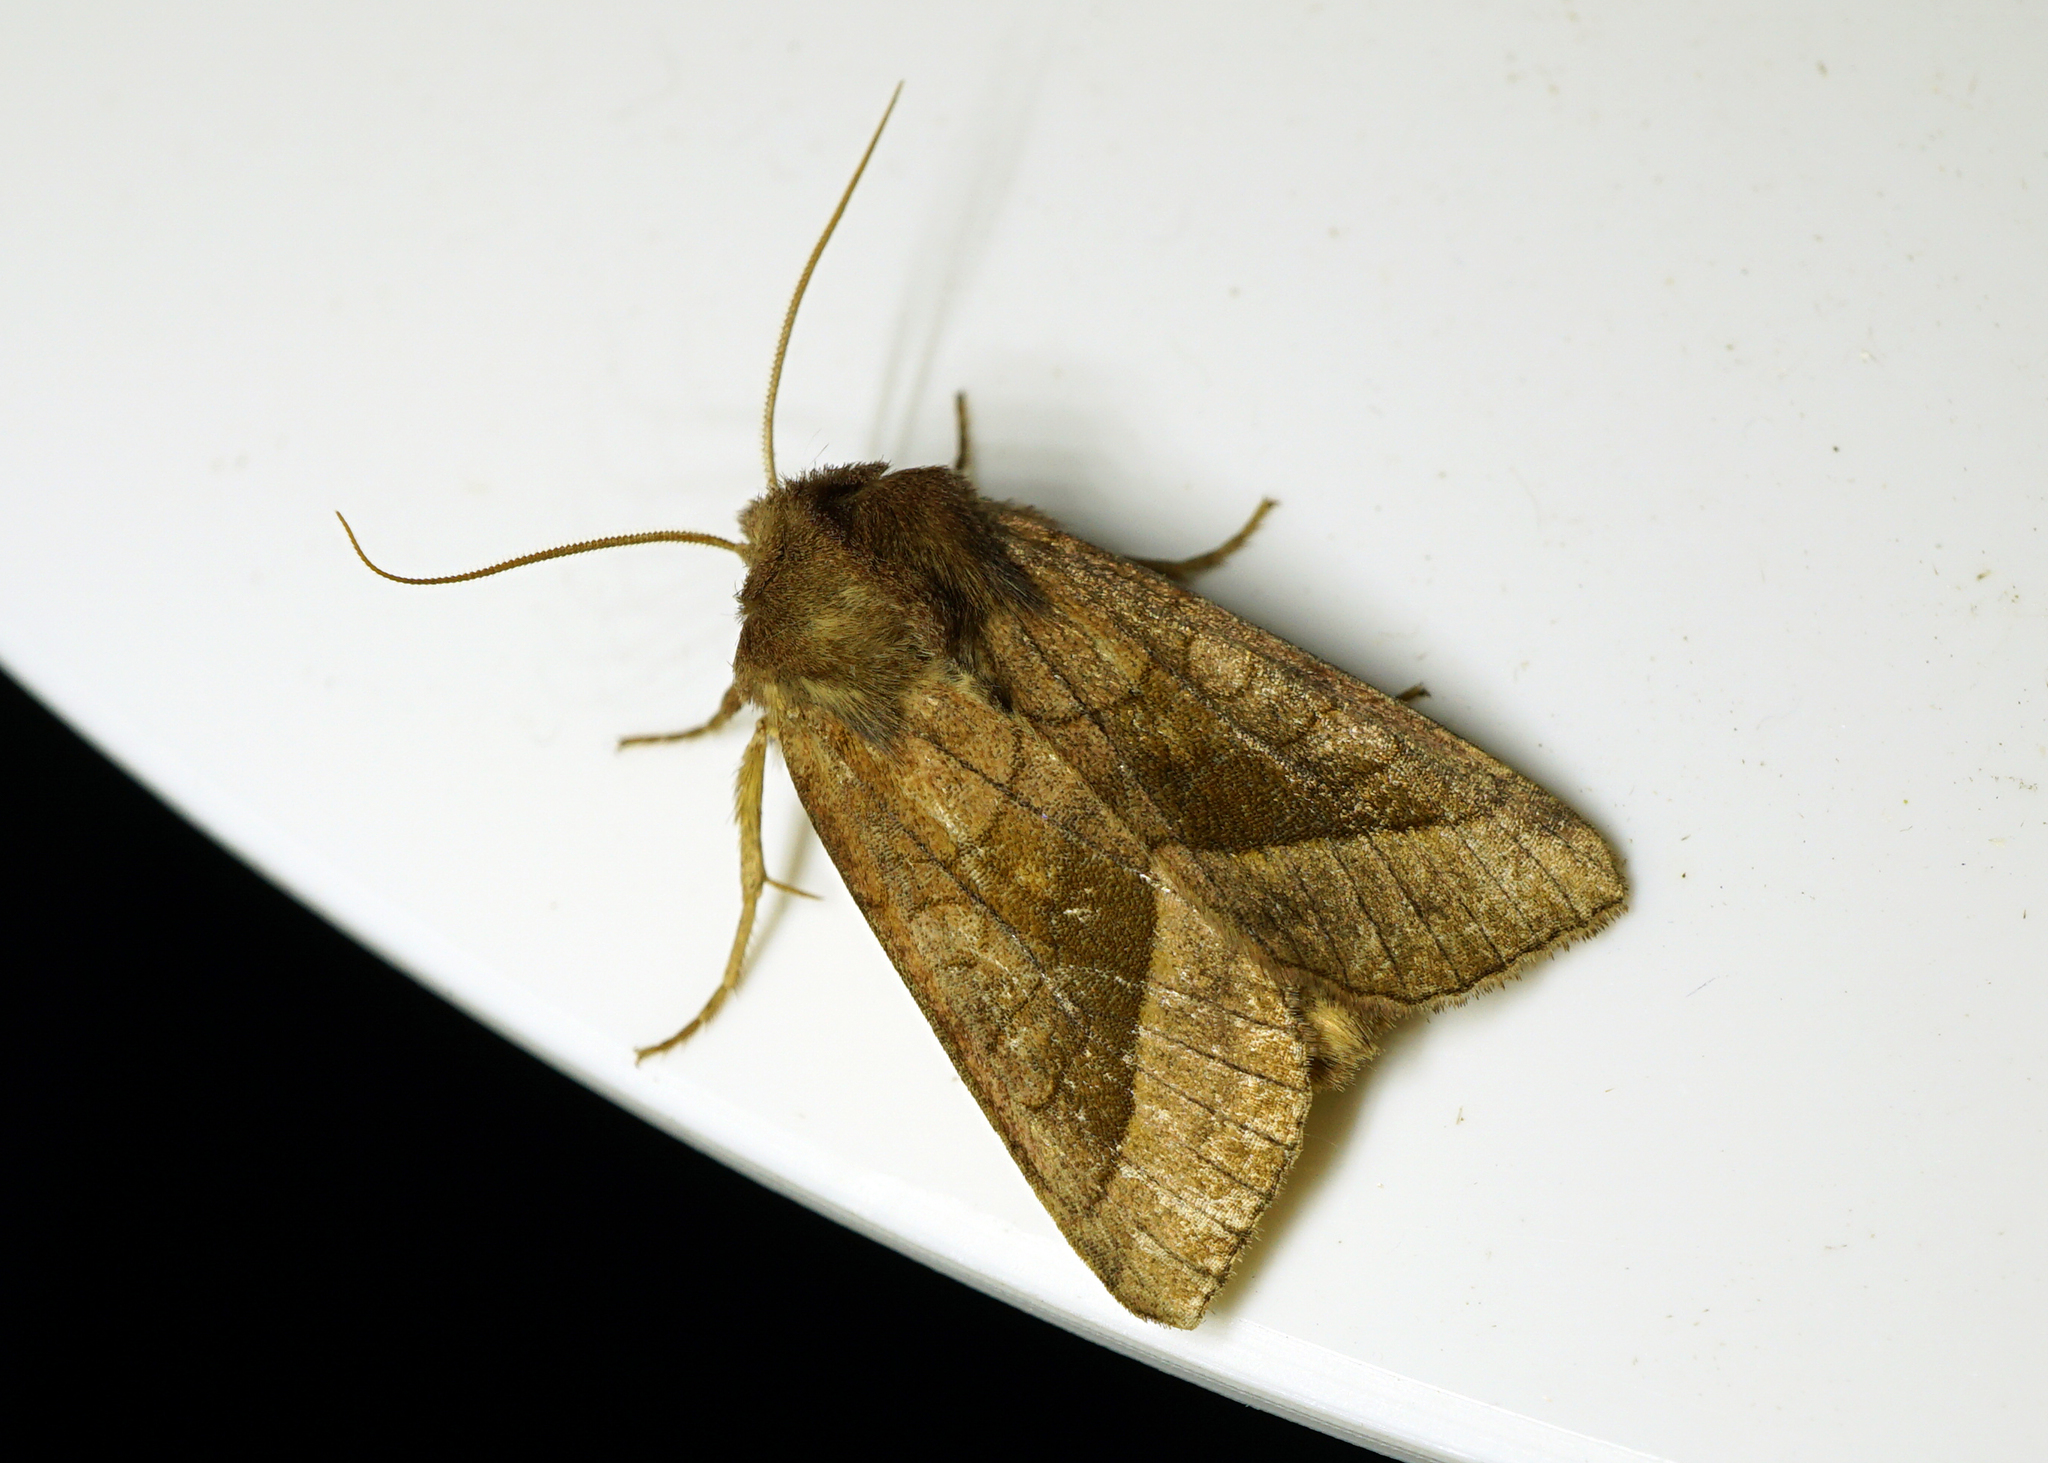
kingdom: Animalia
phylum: Arthropoda
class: Insecta
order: Lepidoptera
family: Noctuidae
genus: Hydraecia
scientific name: Hydraecia micacea
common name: Rosy rustic
